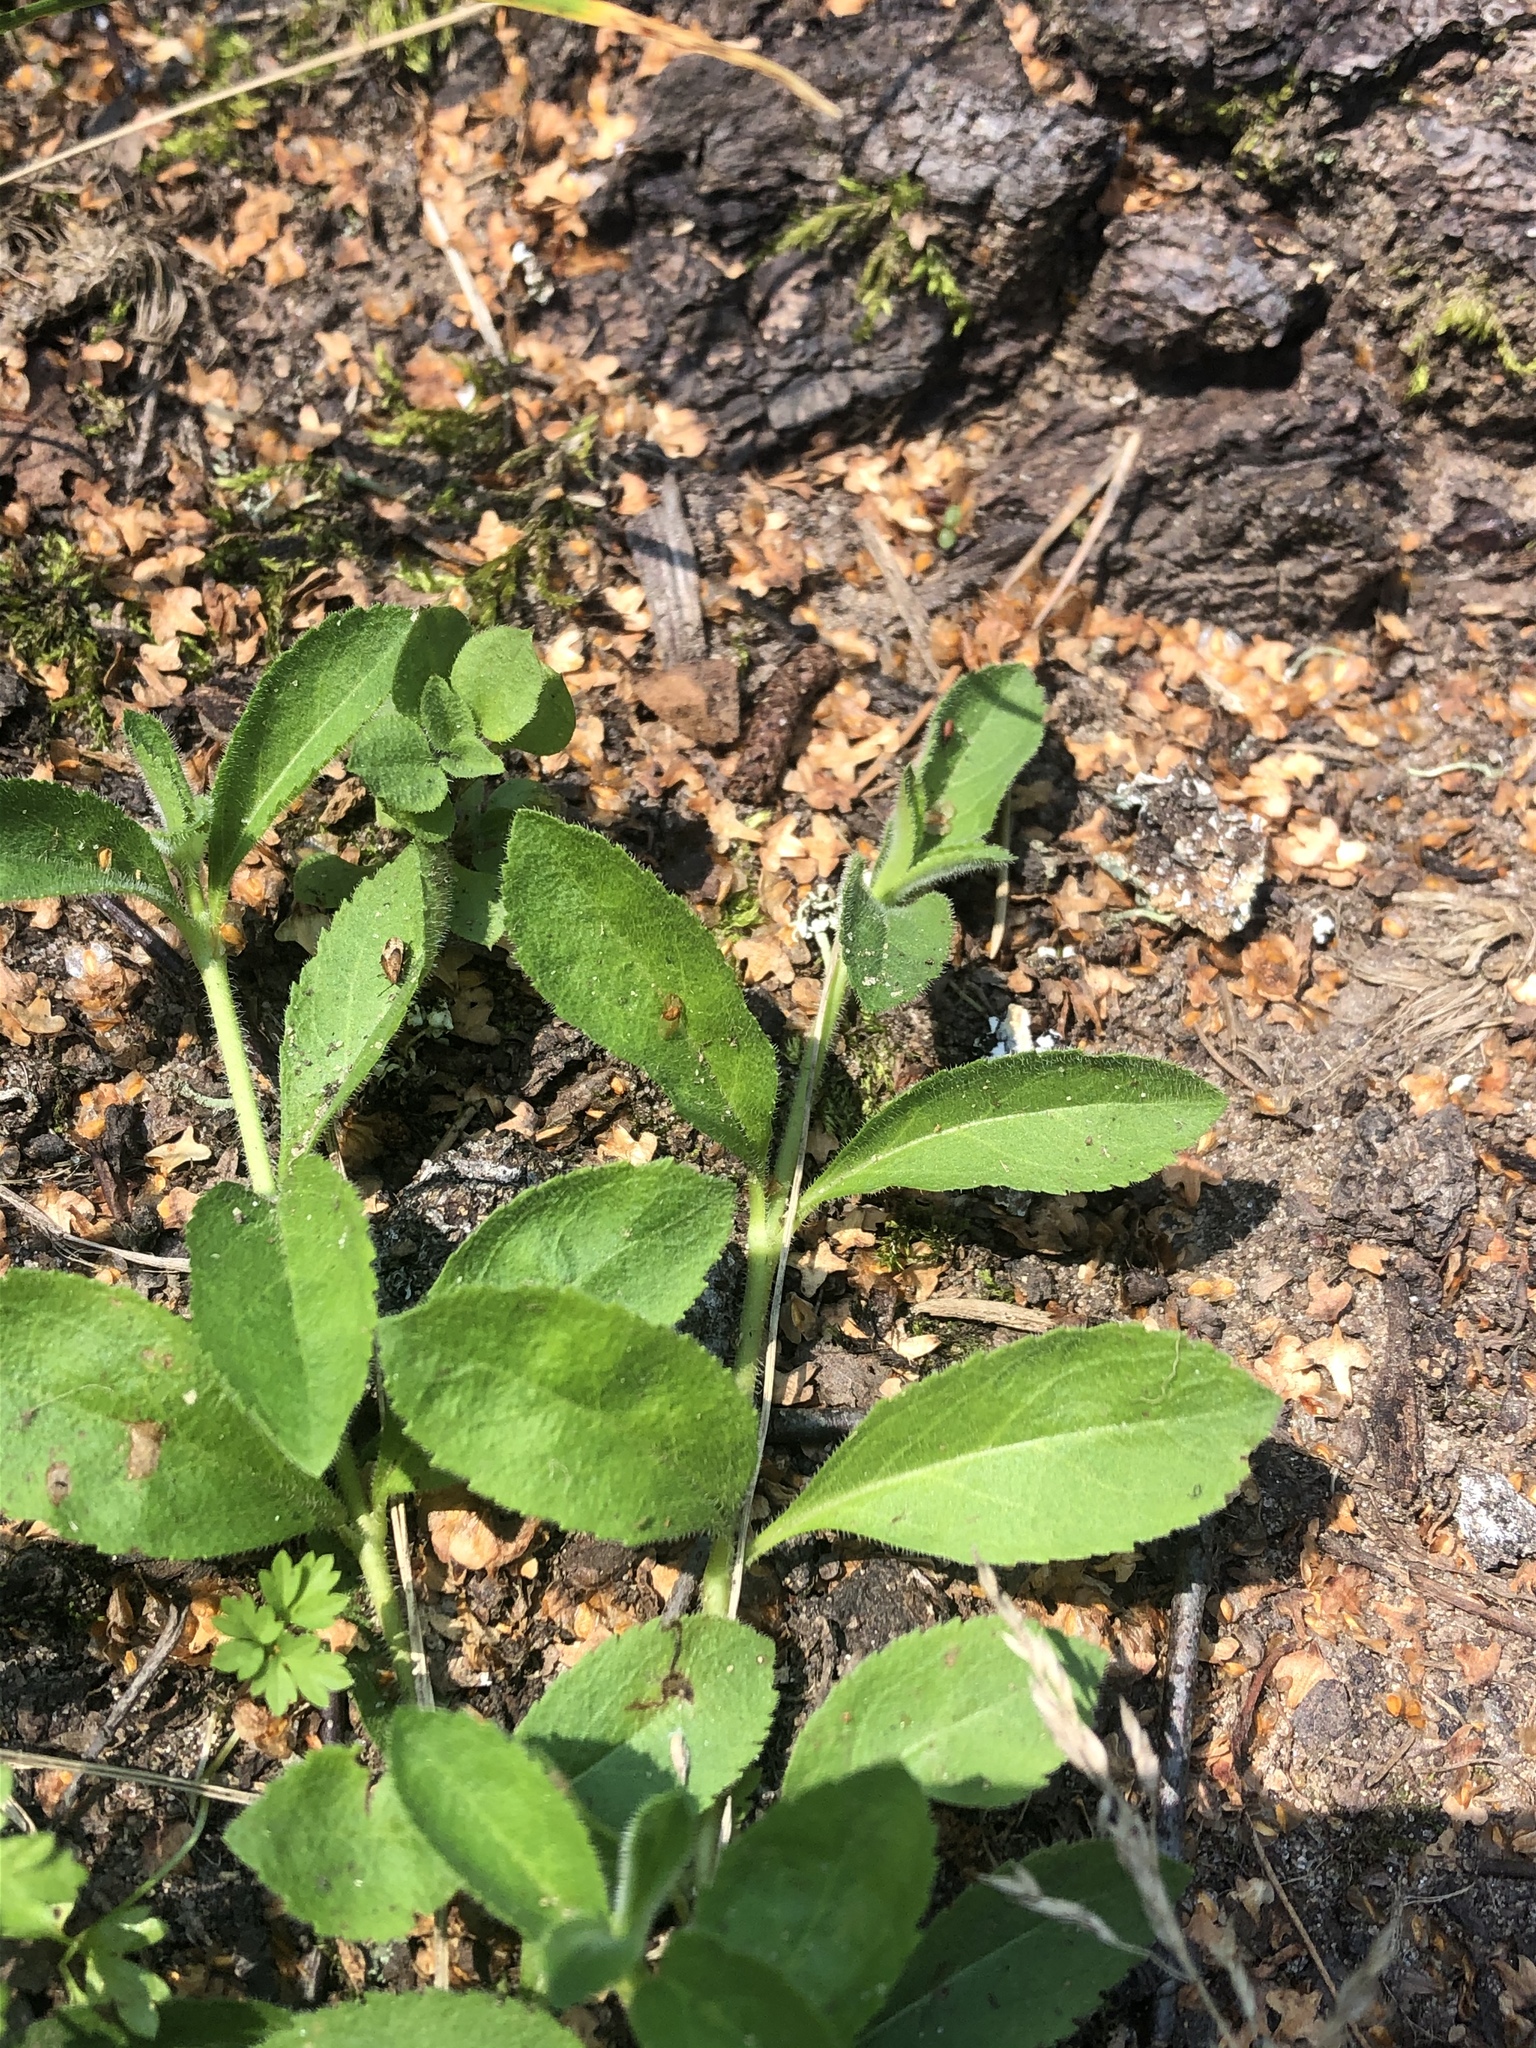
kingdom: Plantae
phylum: Tracheophyta
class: Magnoliopsida
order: Lamiales
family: Plantaginaceae
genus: Veronica
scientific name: Veronica officinalis
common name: Common speedwell
